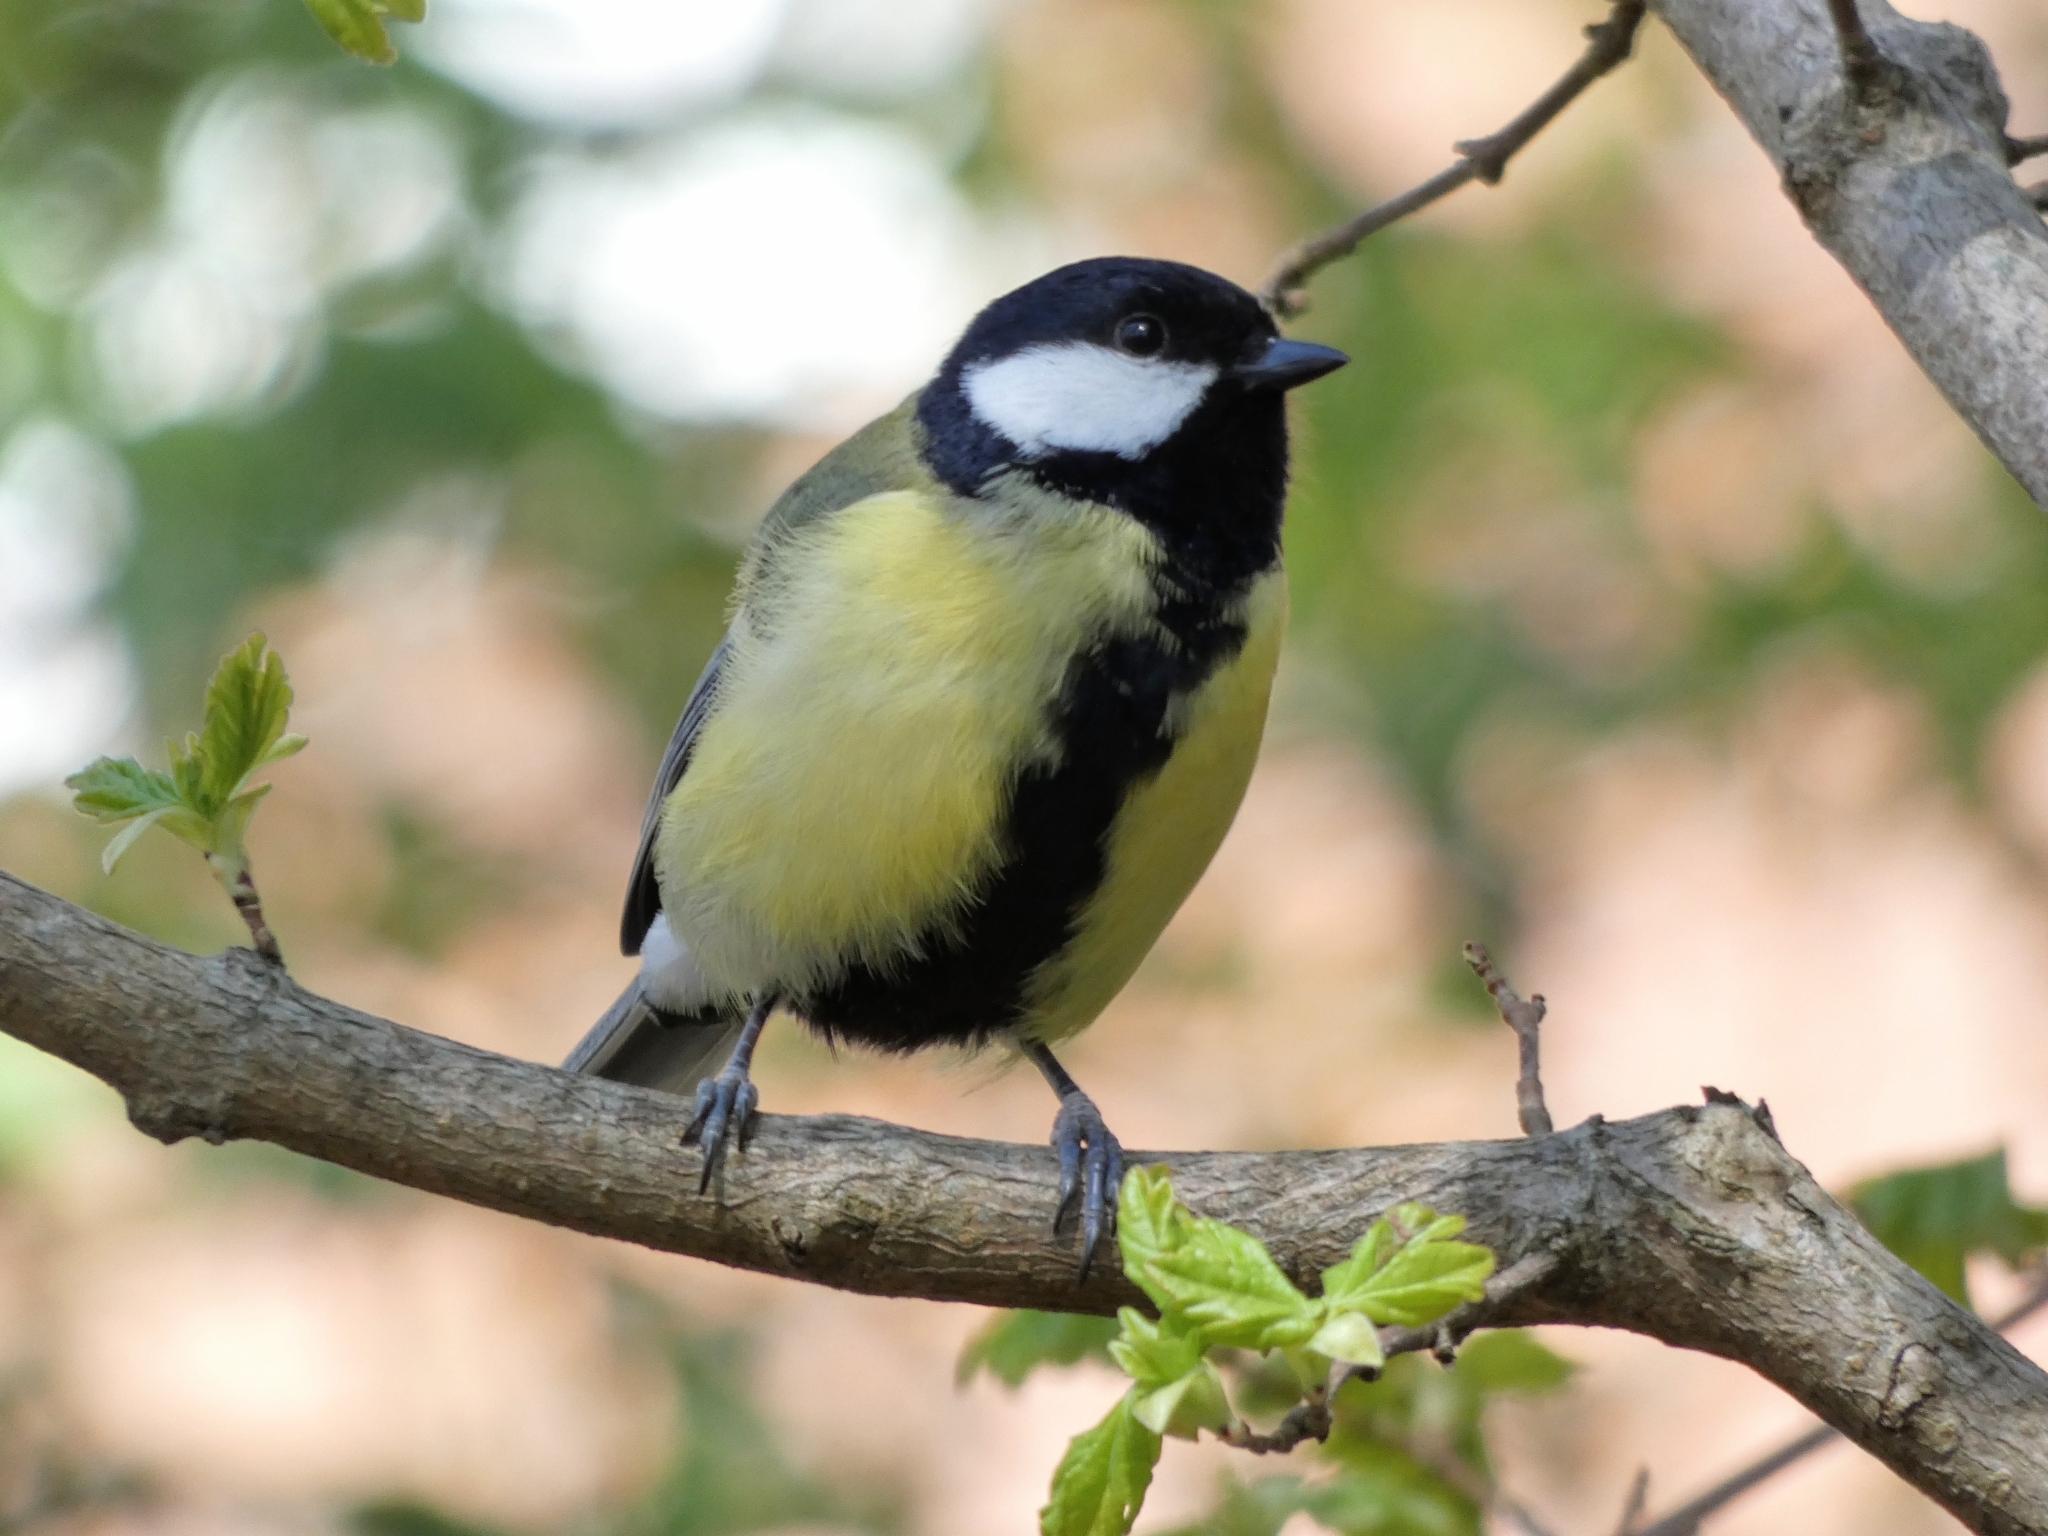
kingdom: Animalia
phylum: Chordata
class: Aves
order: Passeriformes
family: Paridae
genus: Parus
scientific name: Parus major
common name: Great tit
